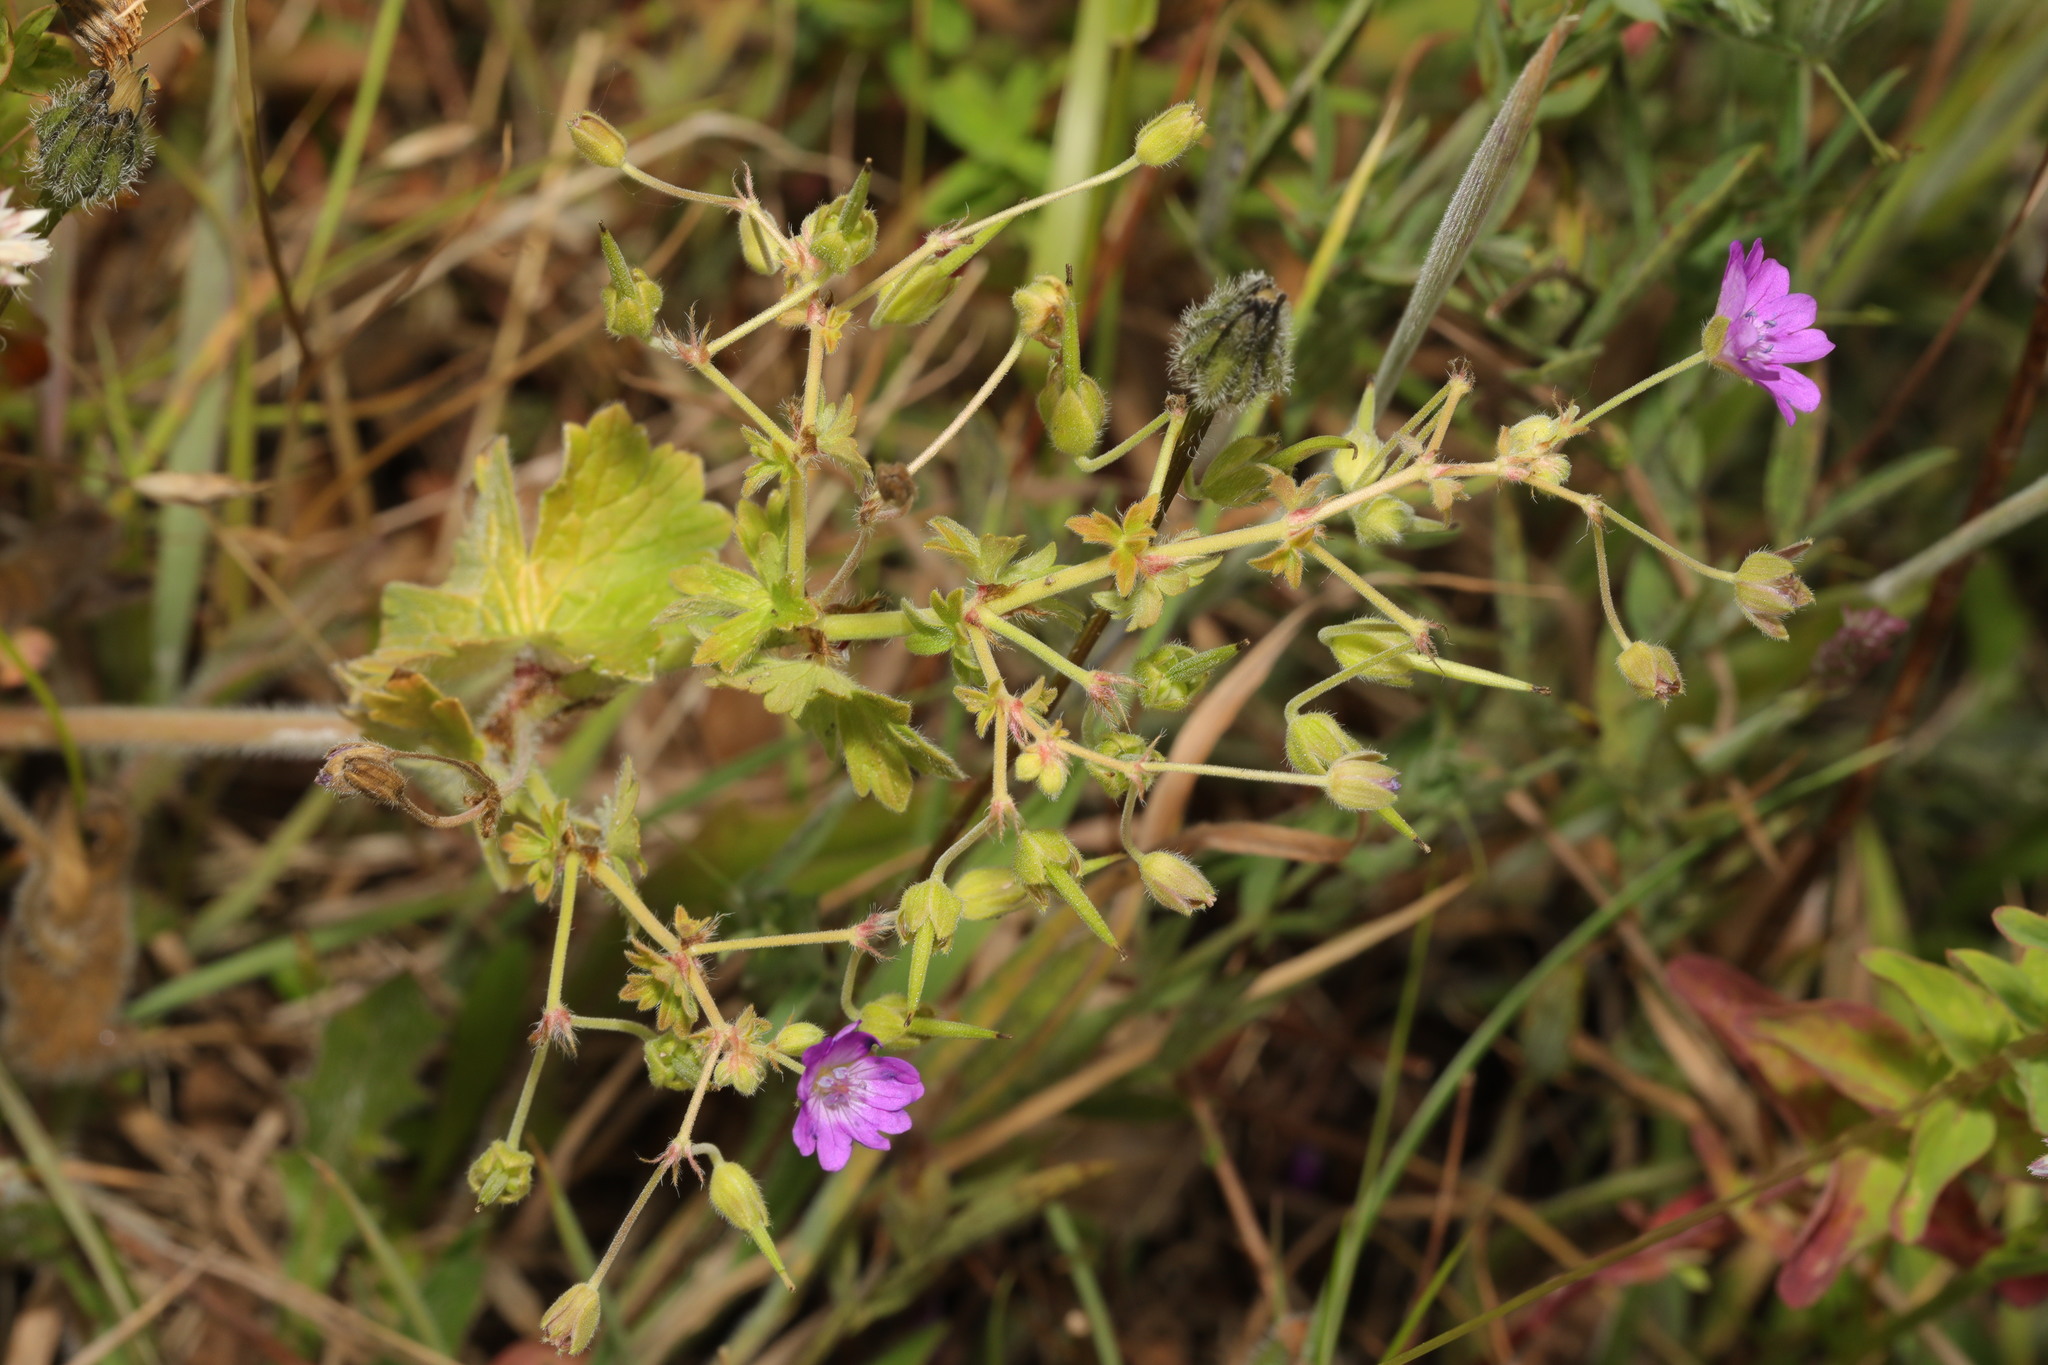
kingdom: Plantae
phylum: Tracheophyta
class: Magnoliopsida
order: Geraniales
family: Geraniaceae
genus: Geranium
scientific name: Geranium pyrenaicum
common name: Hedgerow crane's-bill
